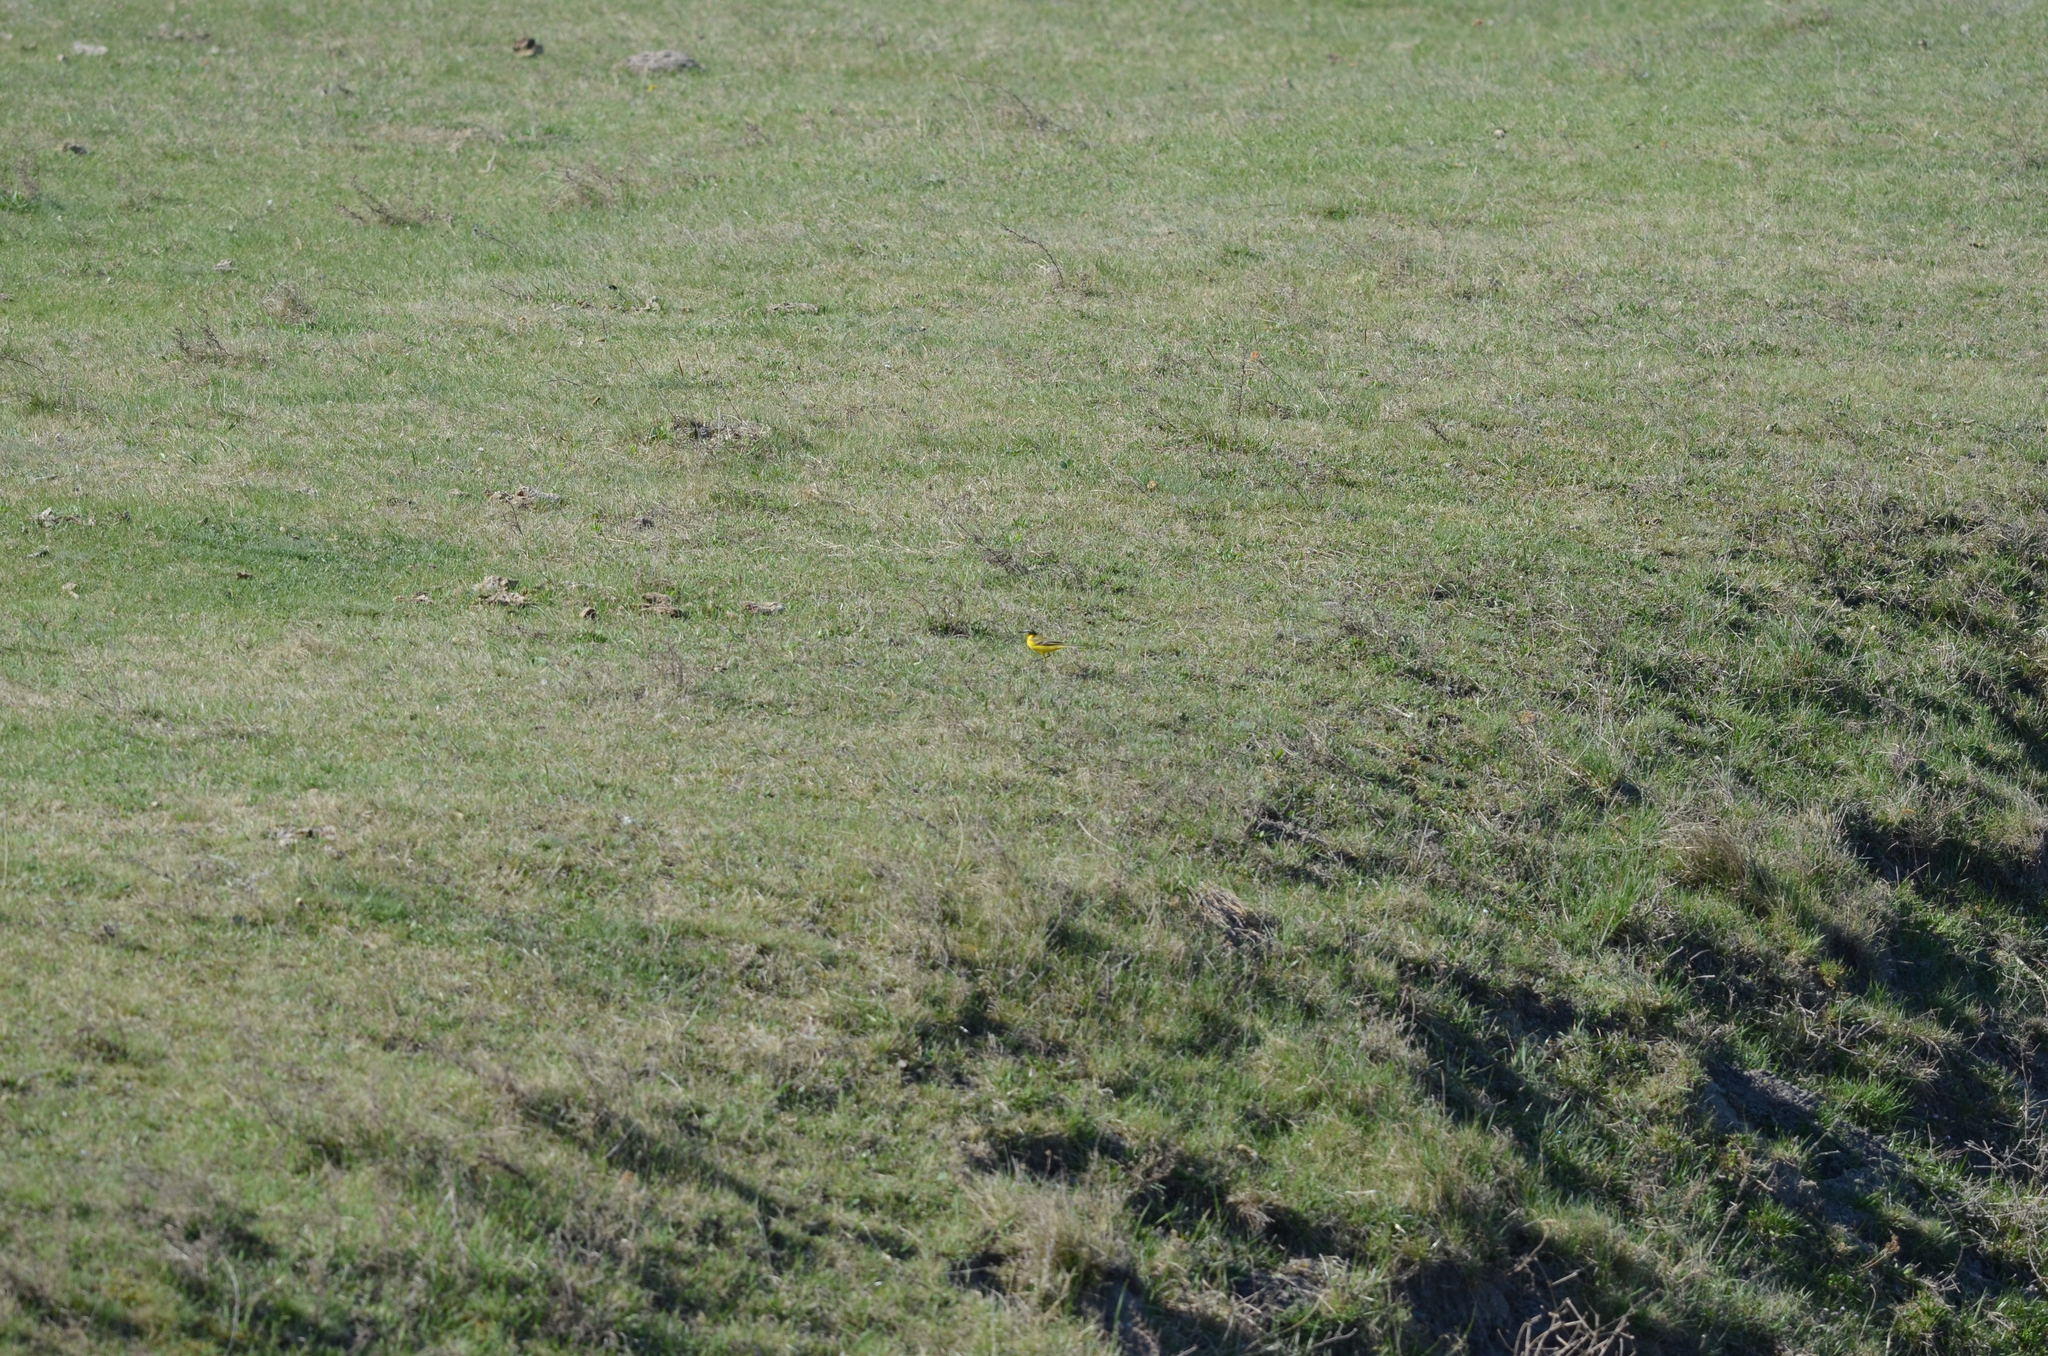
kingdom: Animalia
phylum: Chordata
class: Aves
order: Passeriformes
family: Motacillidae
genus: Motacilla
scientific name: Motacilla flava
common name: Western yellow wagtail
